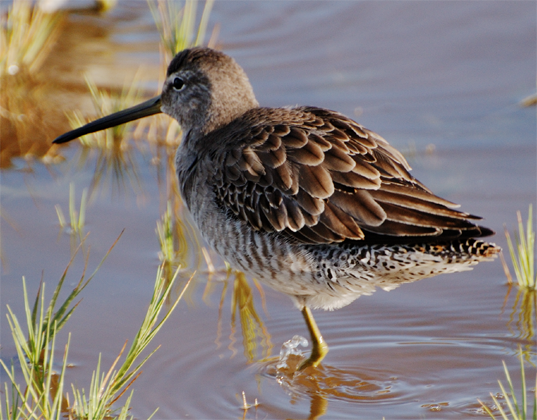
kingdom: Animalia
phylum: Chordata
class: Aves
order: Charadriiformes
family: Scolopacidae
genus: Limnodromus
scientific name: Limnodromus scolopaceus
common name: Long-billed dowitcher
